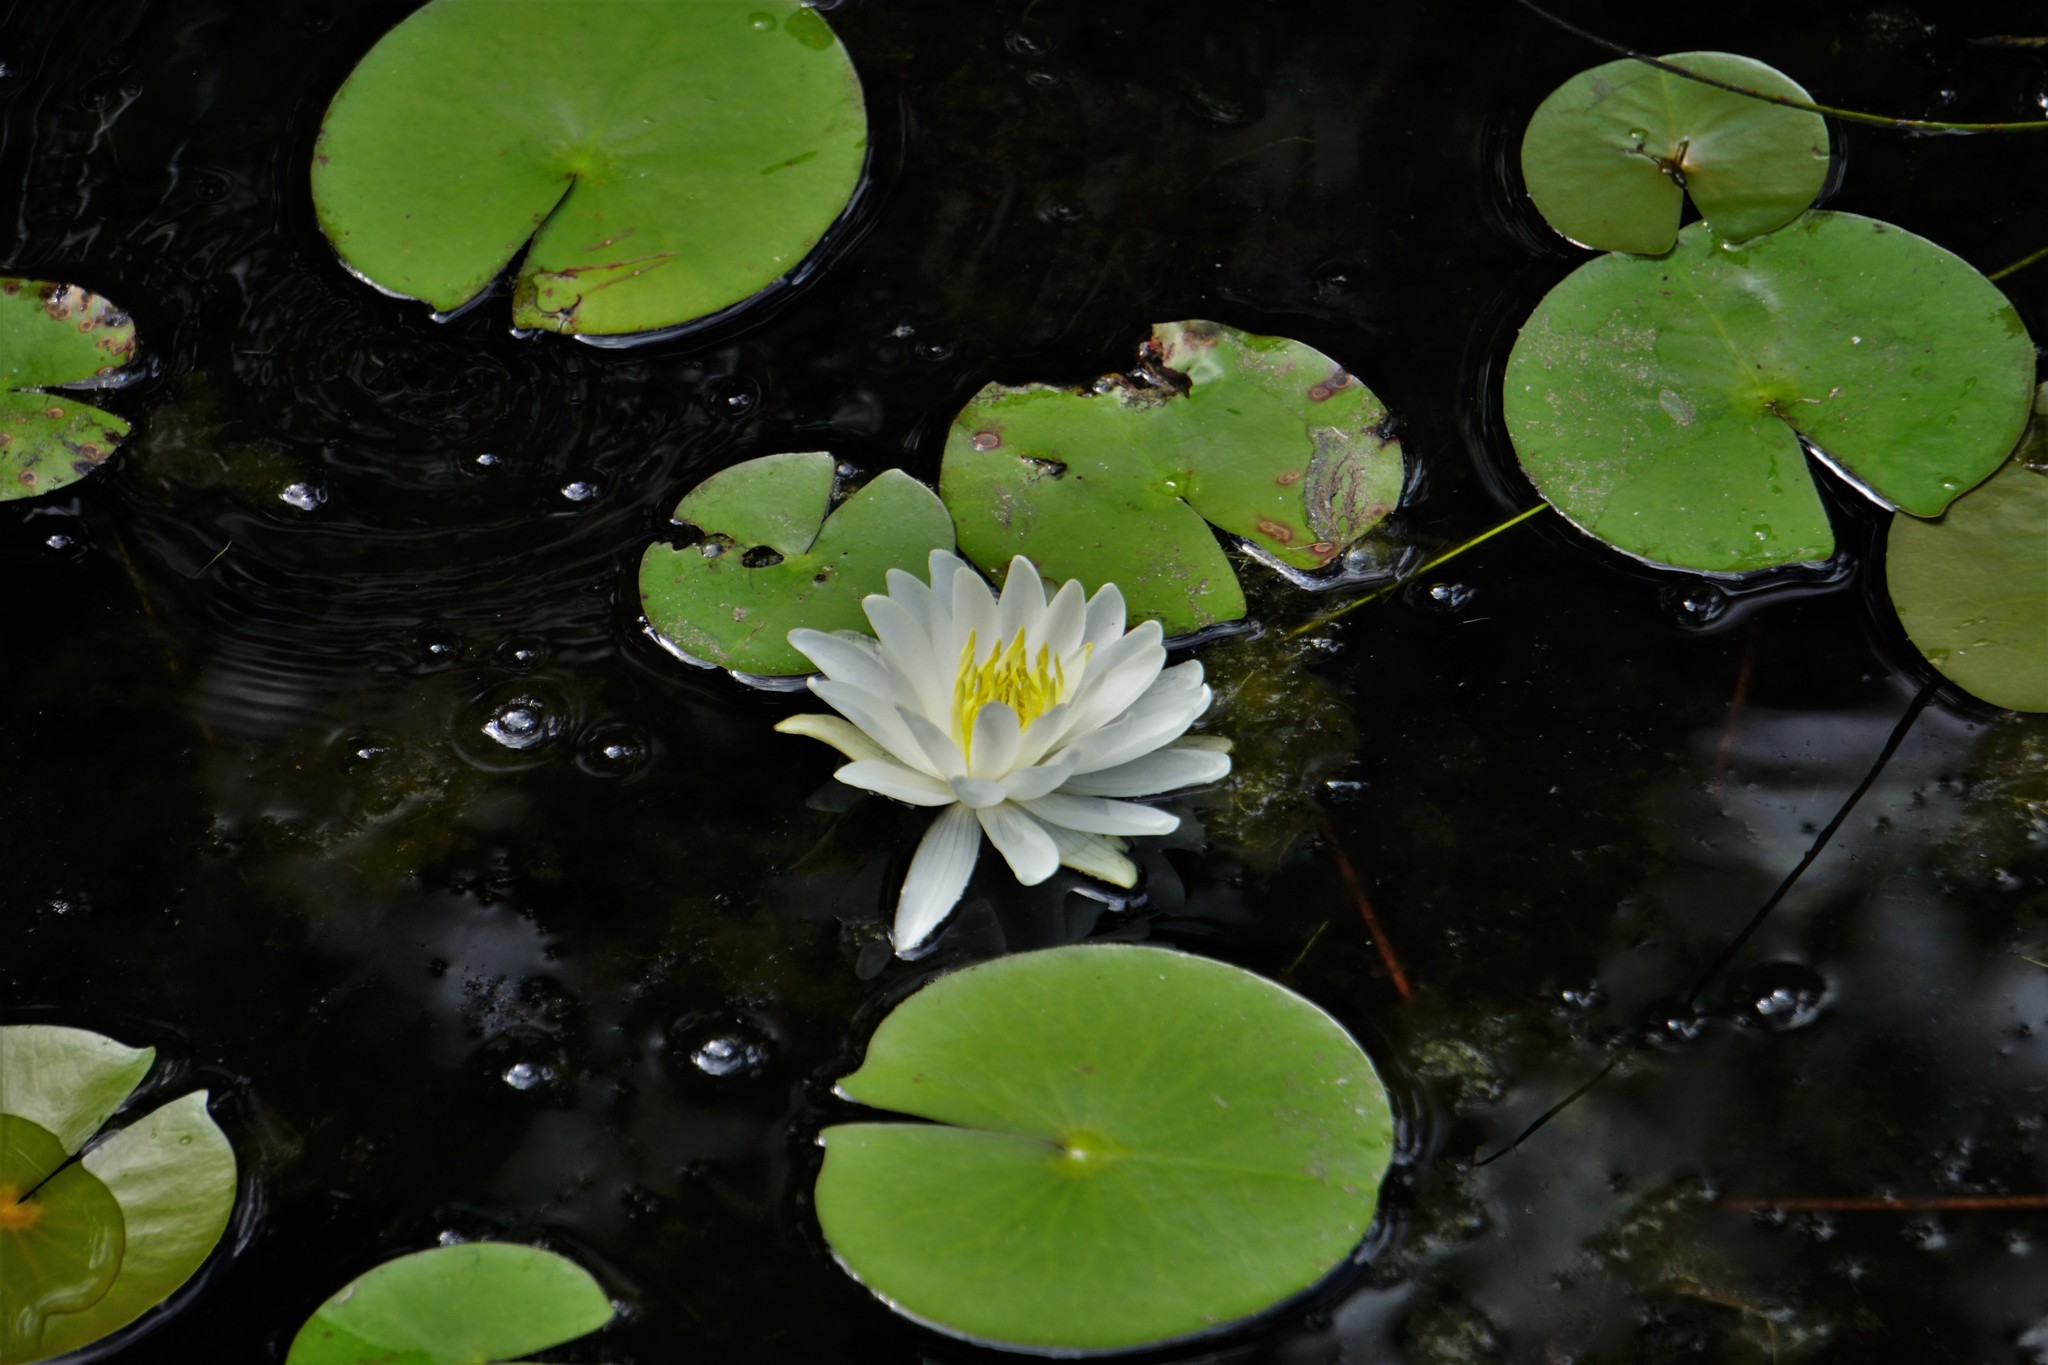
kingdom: Plantae
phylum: Tracheophyta
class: Magnoliopsida
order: Nymphaeales
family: Nymphaeaceae
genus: Nymphaea
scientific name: Nymphaea odorata
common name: Fragrant water-lily
